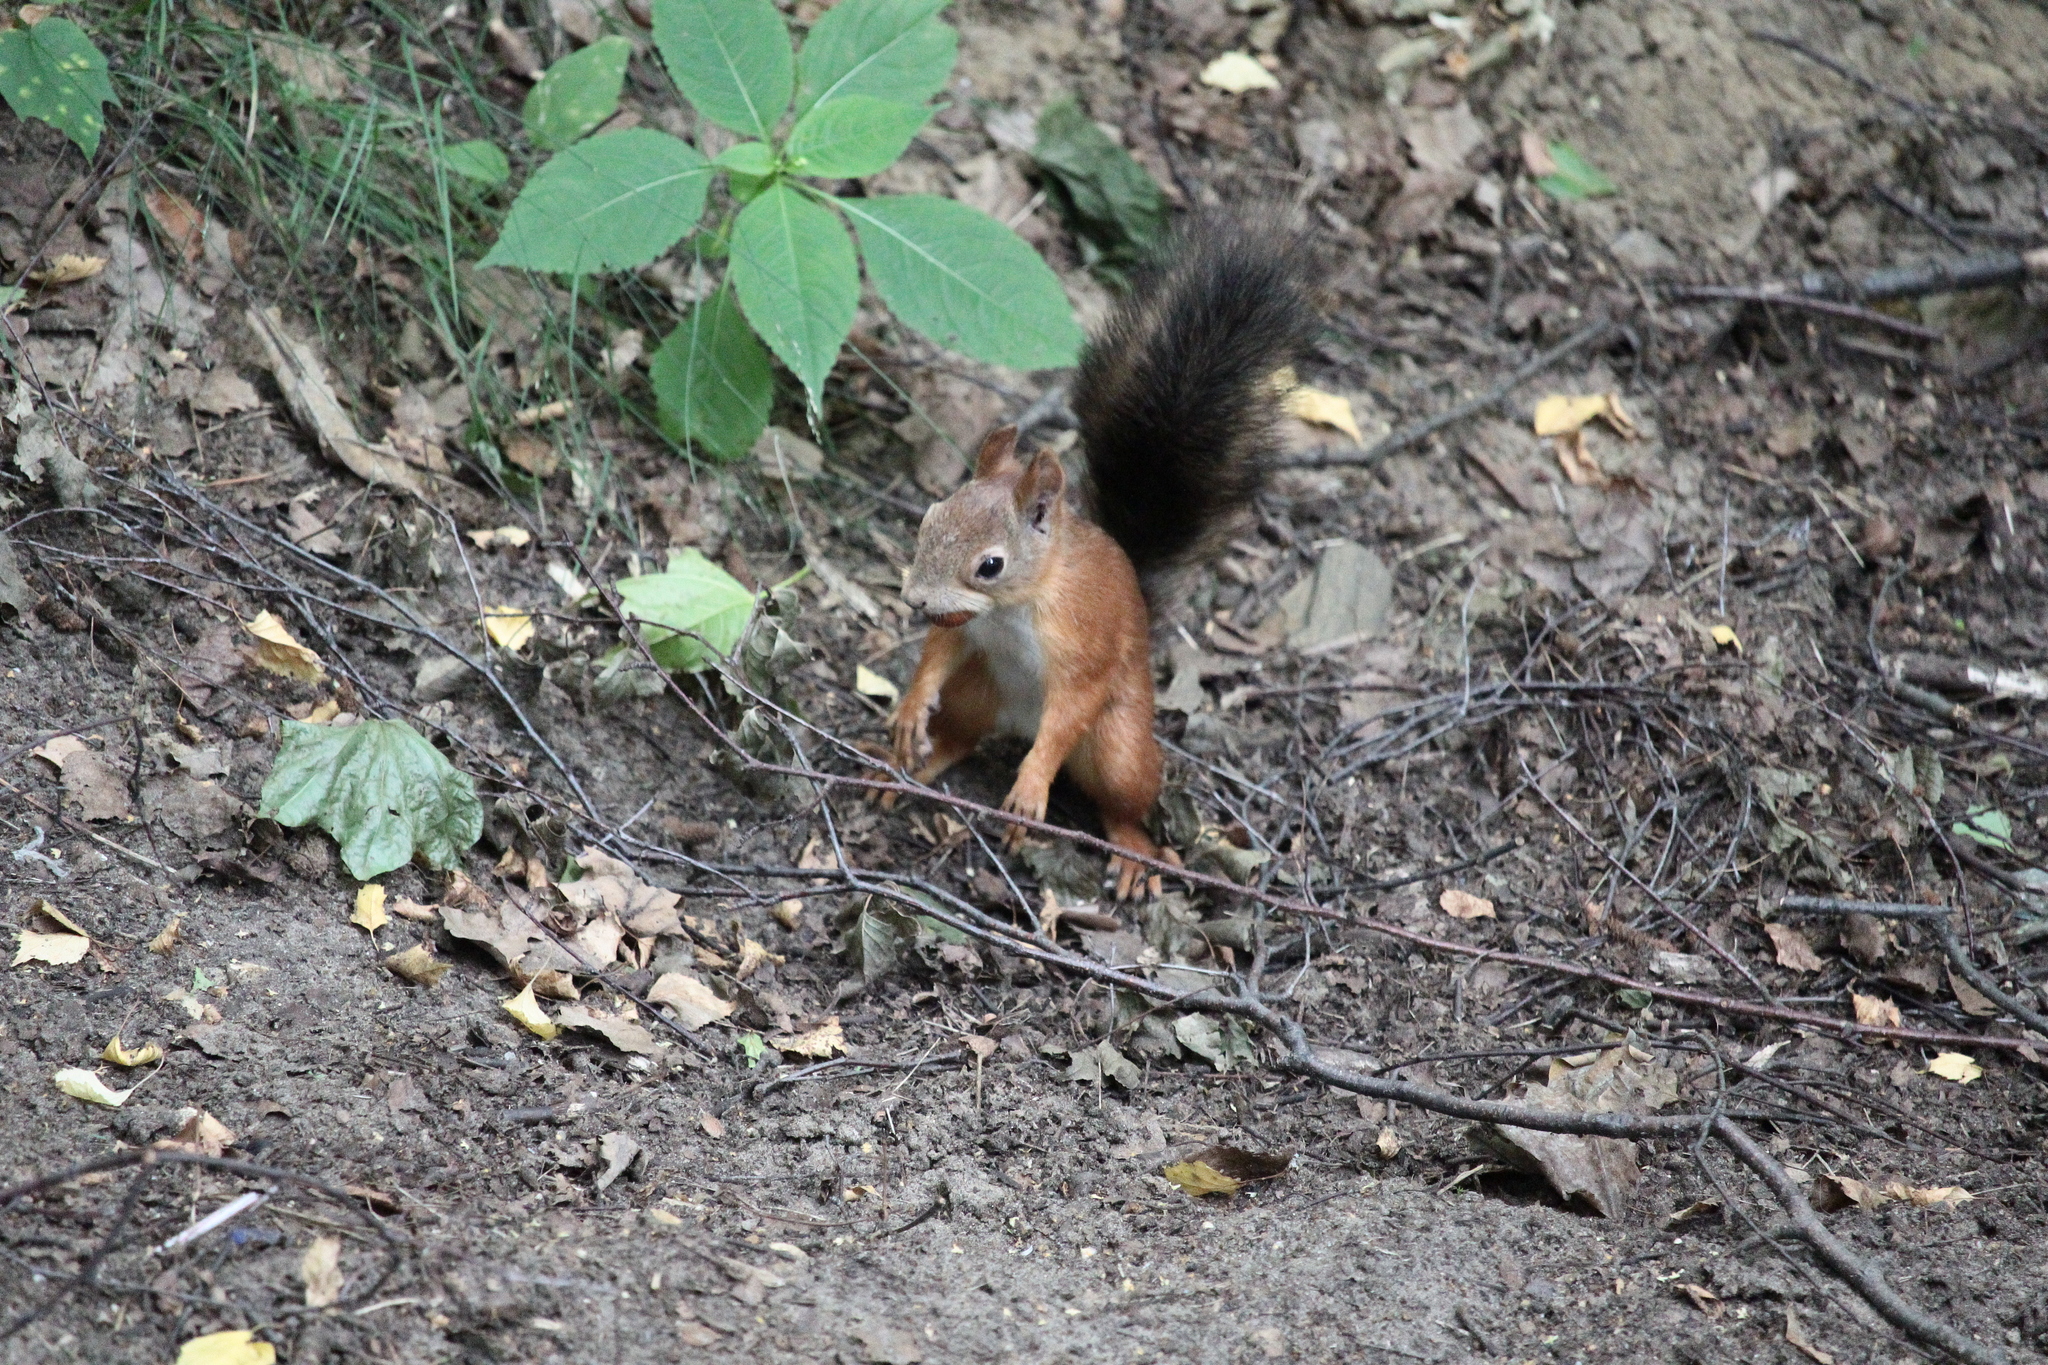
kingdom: Animalia
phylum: Chordata
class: Mammalia
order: Rodentia
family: Sciuridae
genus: Sciurus
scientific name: Sciurus vulgaris
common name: Eurasian red squirrel
